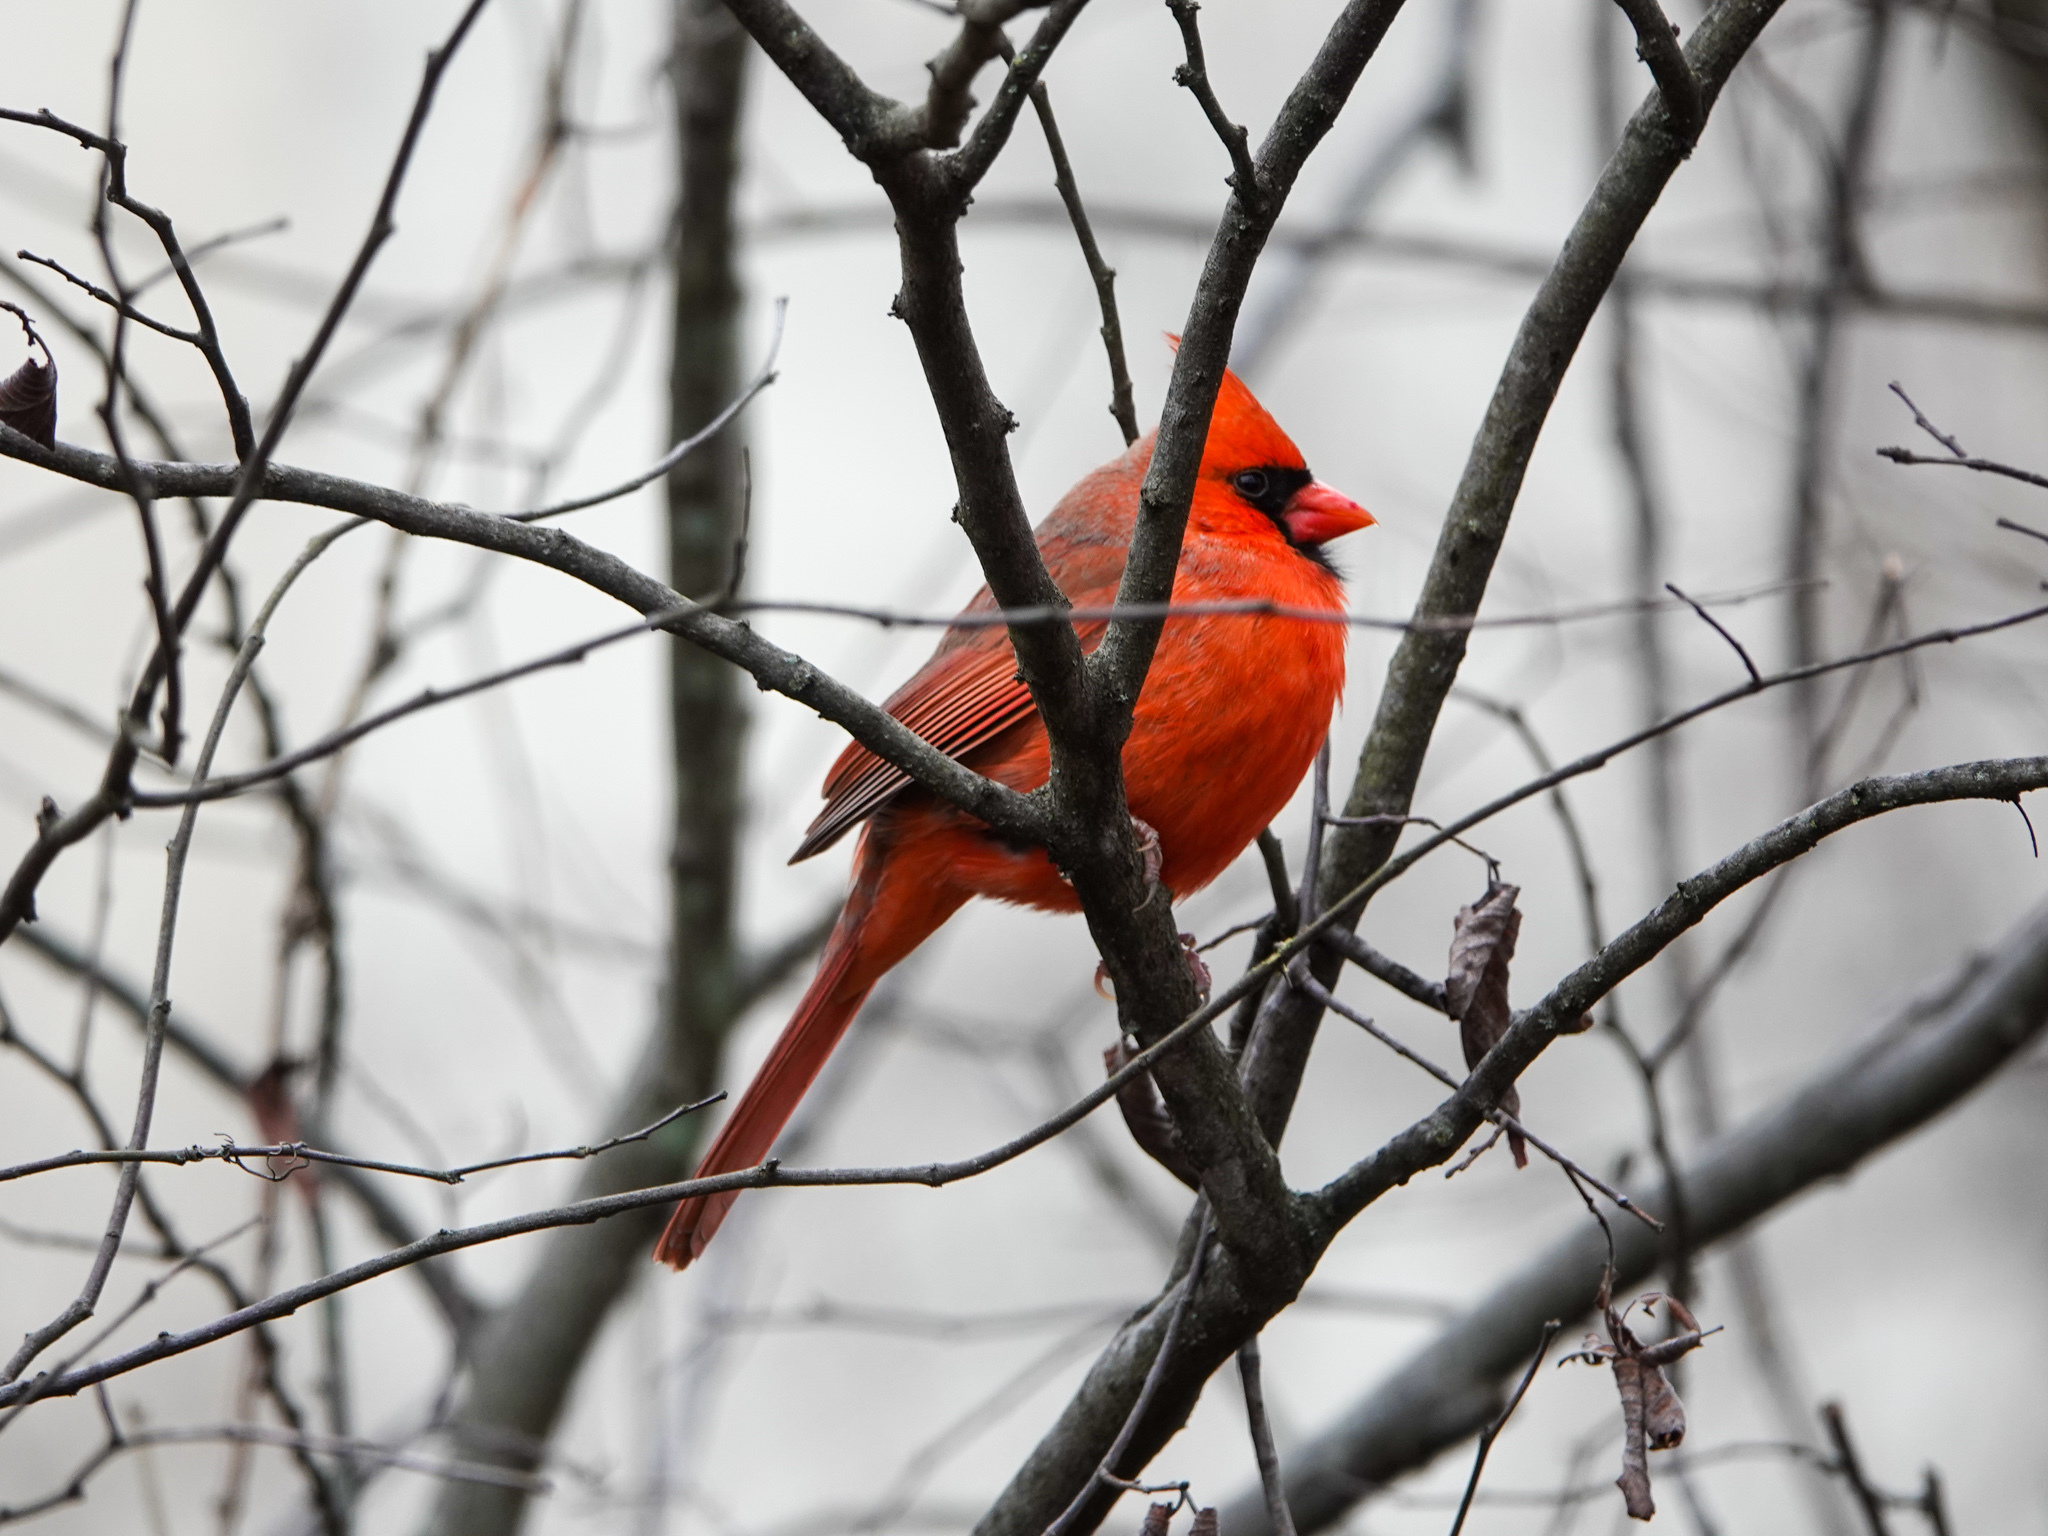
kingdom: Animalia
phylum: Chordata
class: Aves
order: Passeriformes
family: Cardinalidae
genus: Cardinalis
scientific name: Cardinalis cardinalis
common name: Northern cardinal
